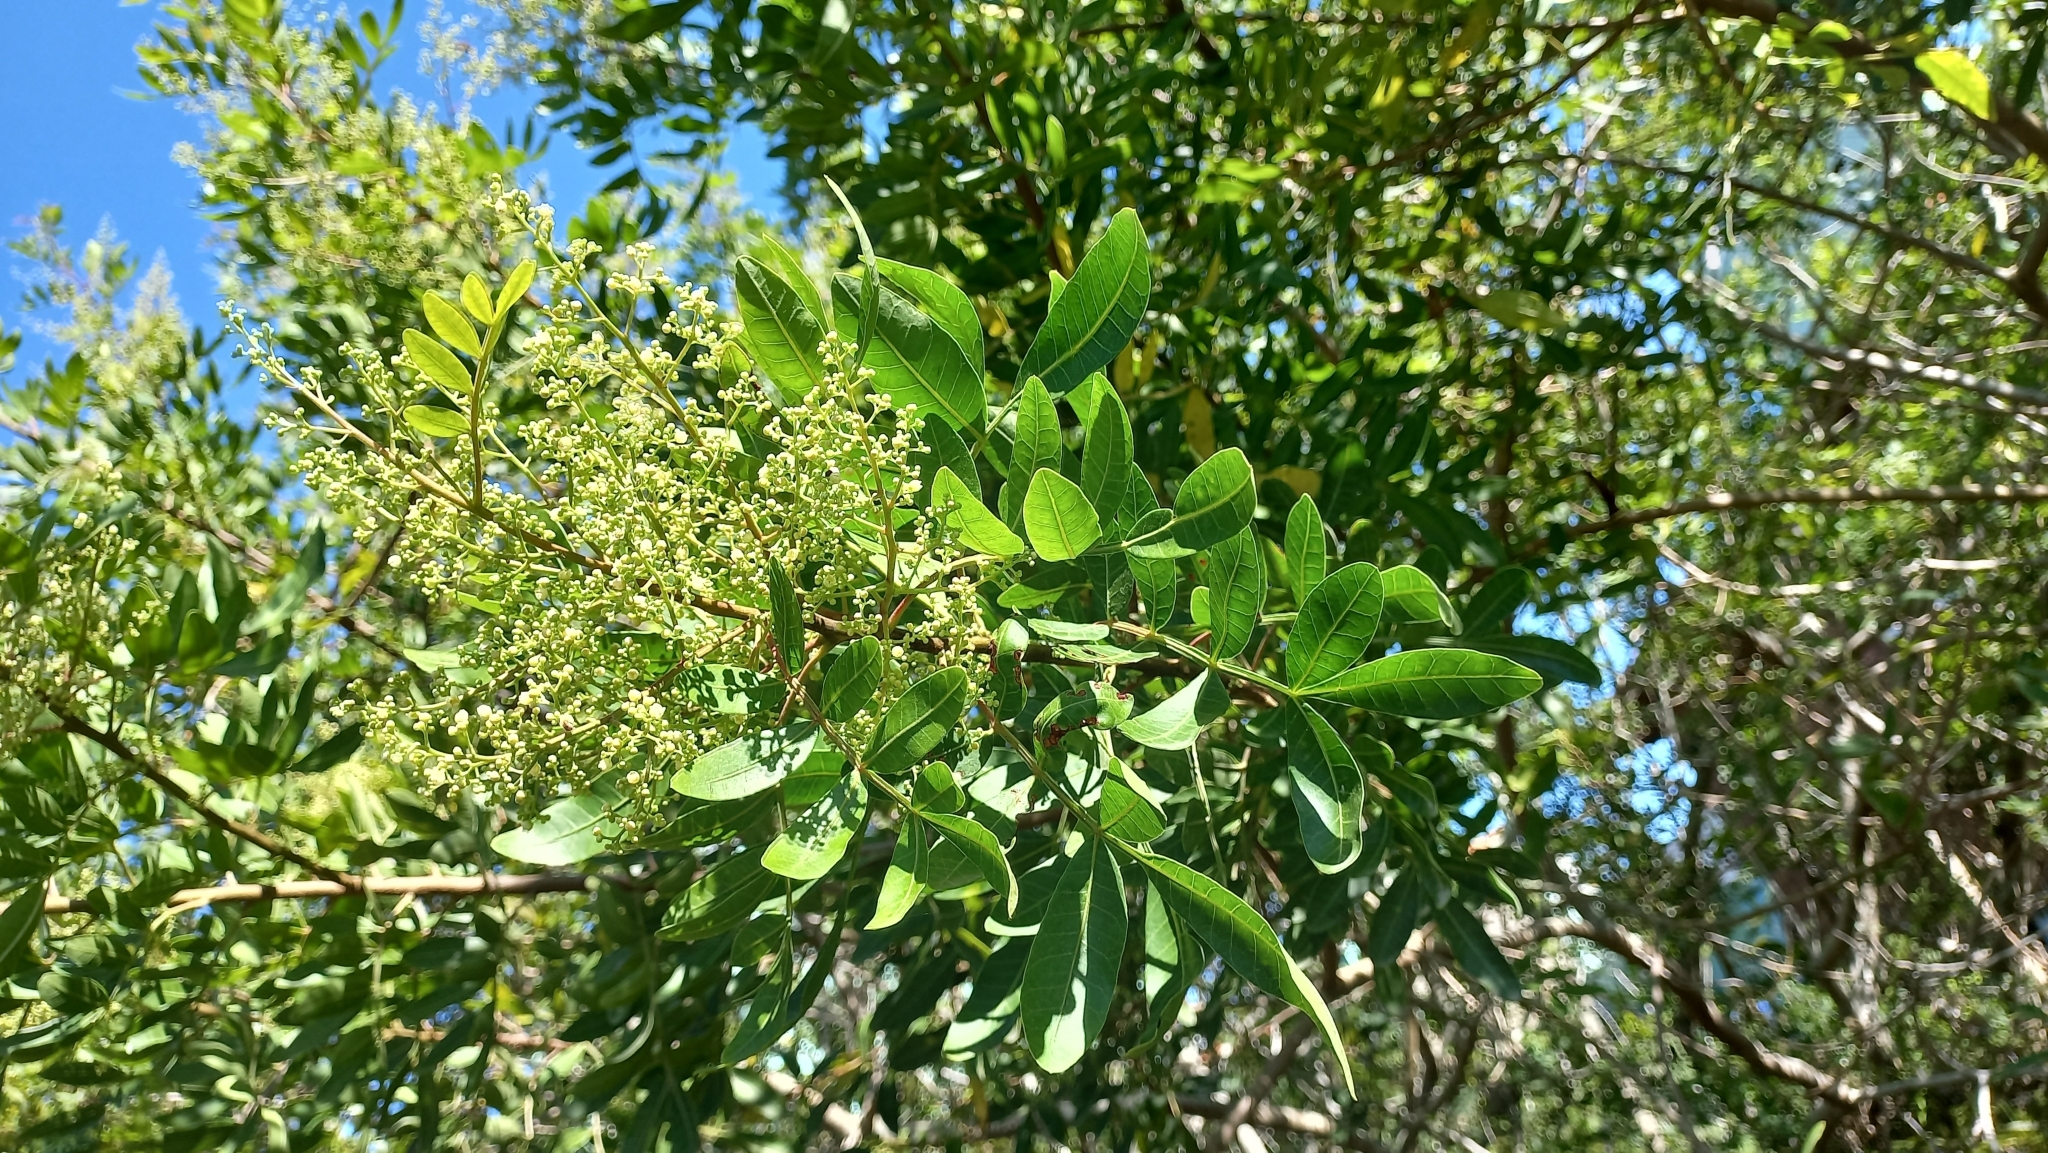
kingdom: Plantae
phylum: Tracheophyta
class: Magnoliopsida
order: Sapindales
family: Anacardiaceae
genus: Schinus
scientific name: Schinus terebinthifolia
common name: Brazilian peppertree
